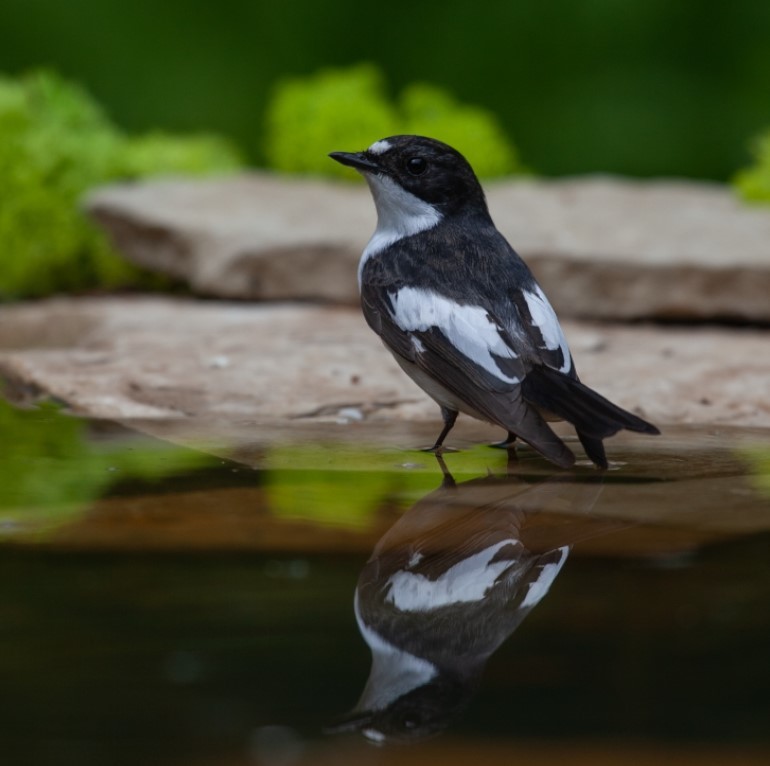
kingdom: Animalia
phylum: Chordata
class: Aves
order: Passeriformes
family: Muscicapidae
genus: Ficedula
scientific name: Ficedula hypoleuca
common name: European pied flycatcher
